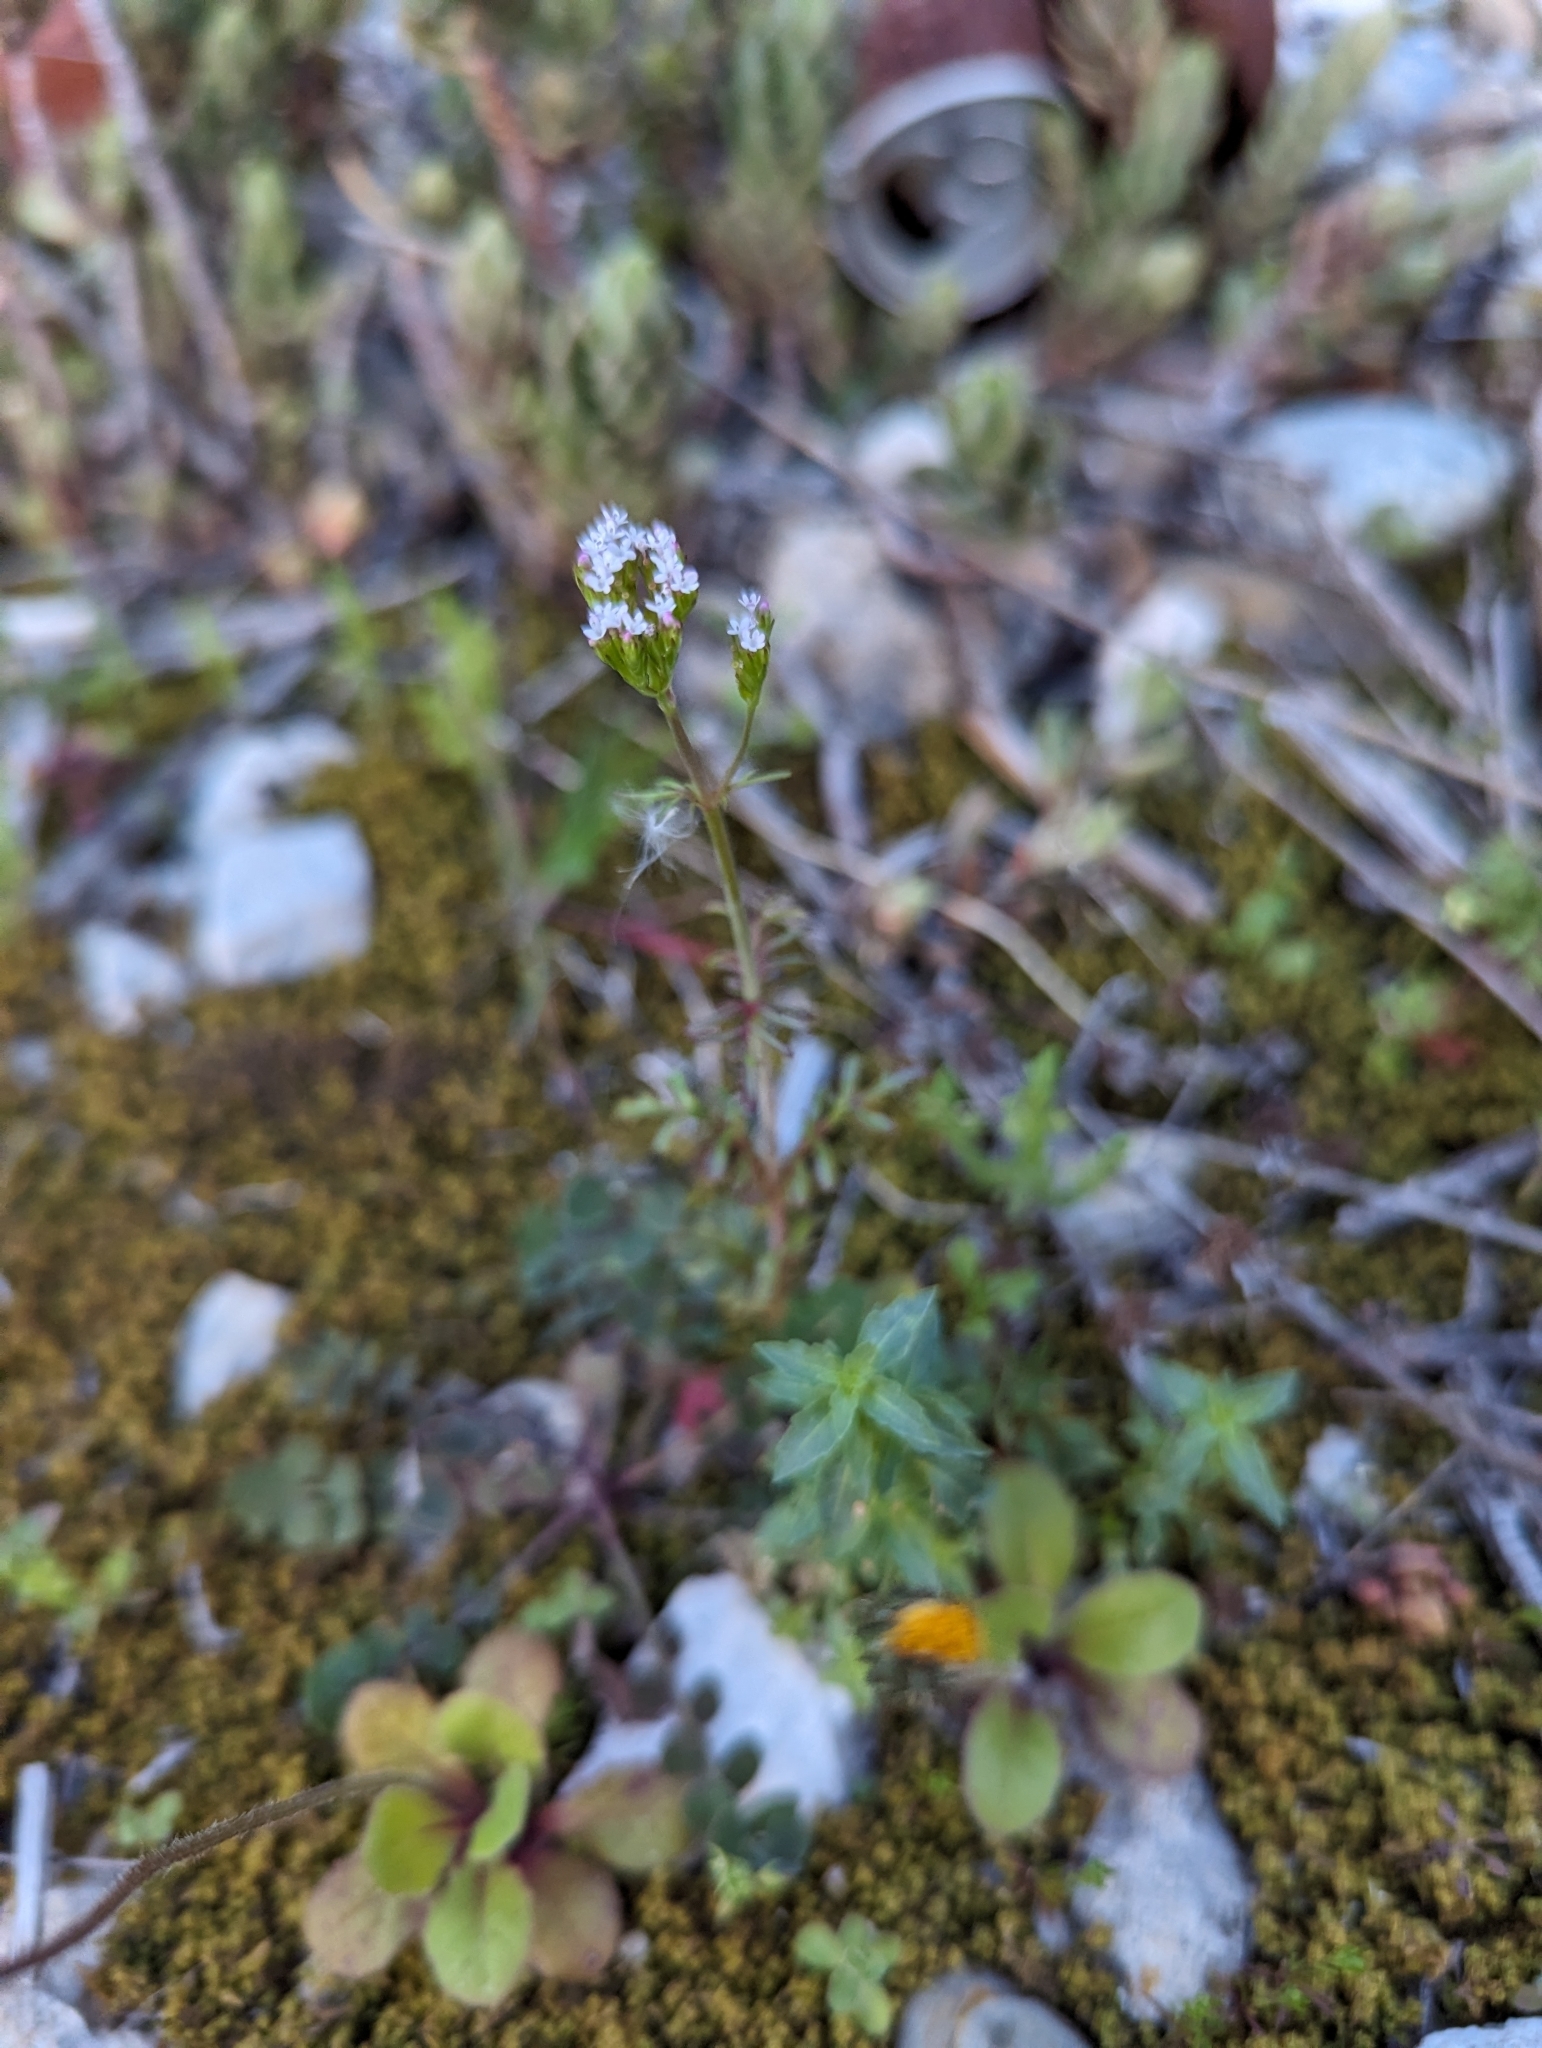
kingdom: Plantae
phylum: Tracheophyta
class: Magnoliopsida
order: Dipsacales
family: Caprifoliaceae
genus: Centranthus
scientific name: Centranthus calcitrapae
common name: Annual valerian
